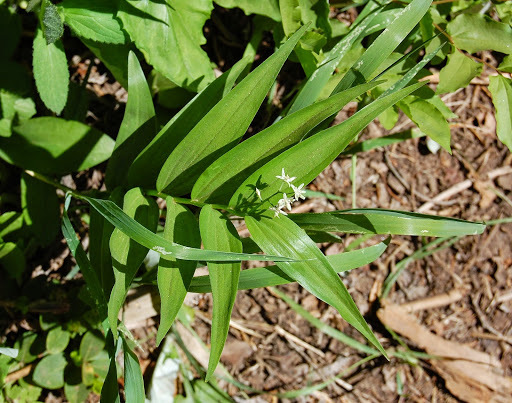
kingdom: Plantae
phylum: Tracheophyta
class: Liliopsida
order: Asparagales
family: Asparagaceae
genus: Maianthemum
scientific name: Maianthemum stellatum
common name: Little false solomon's seal
